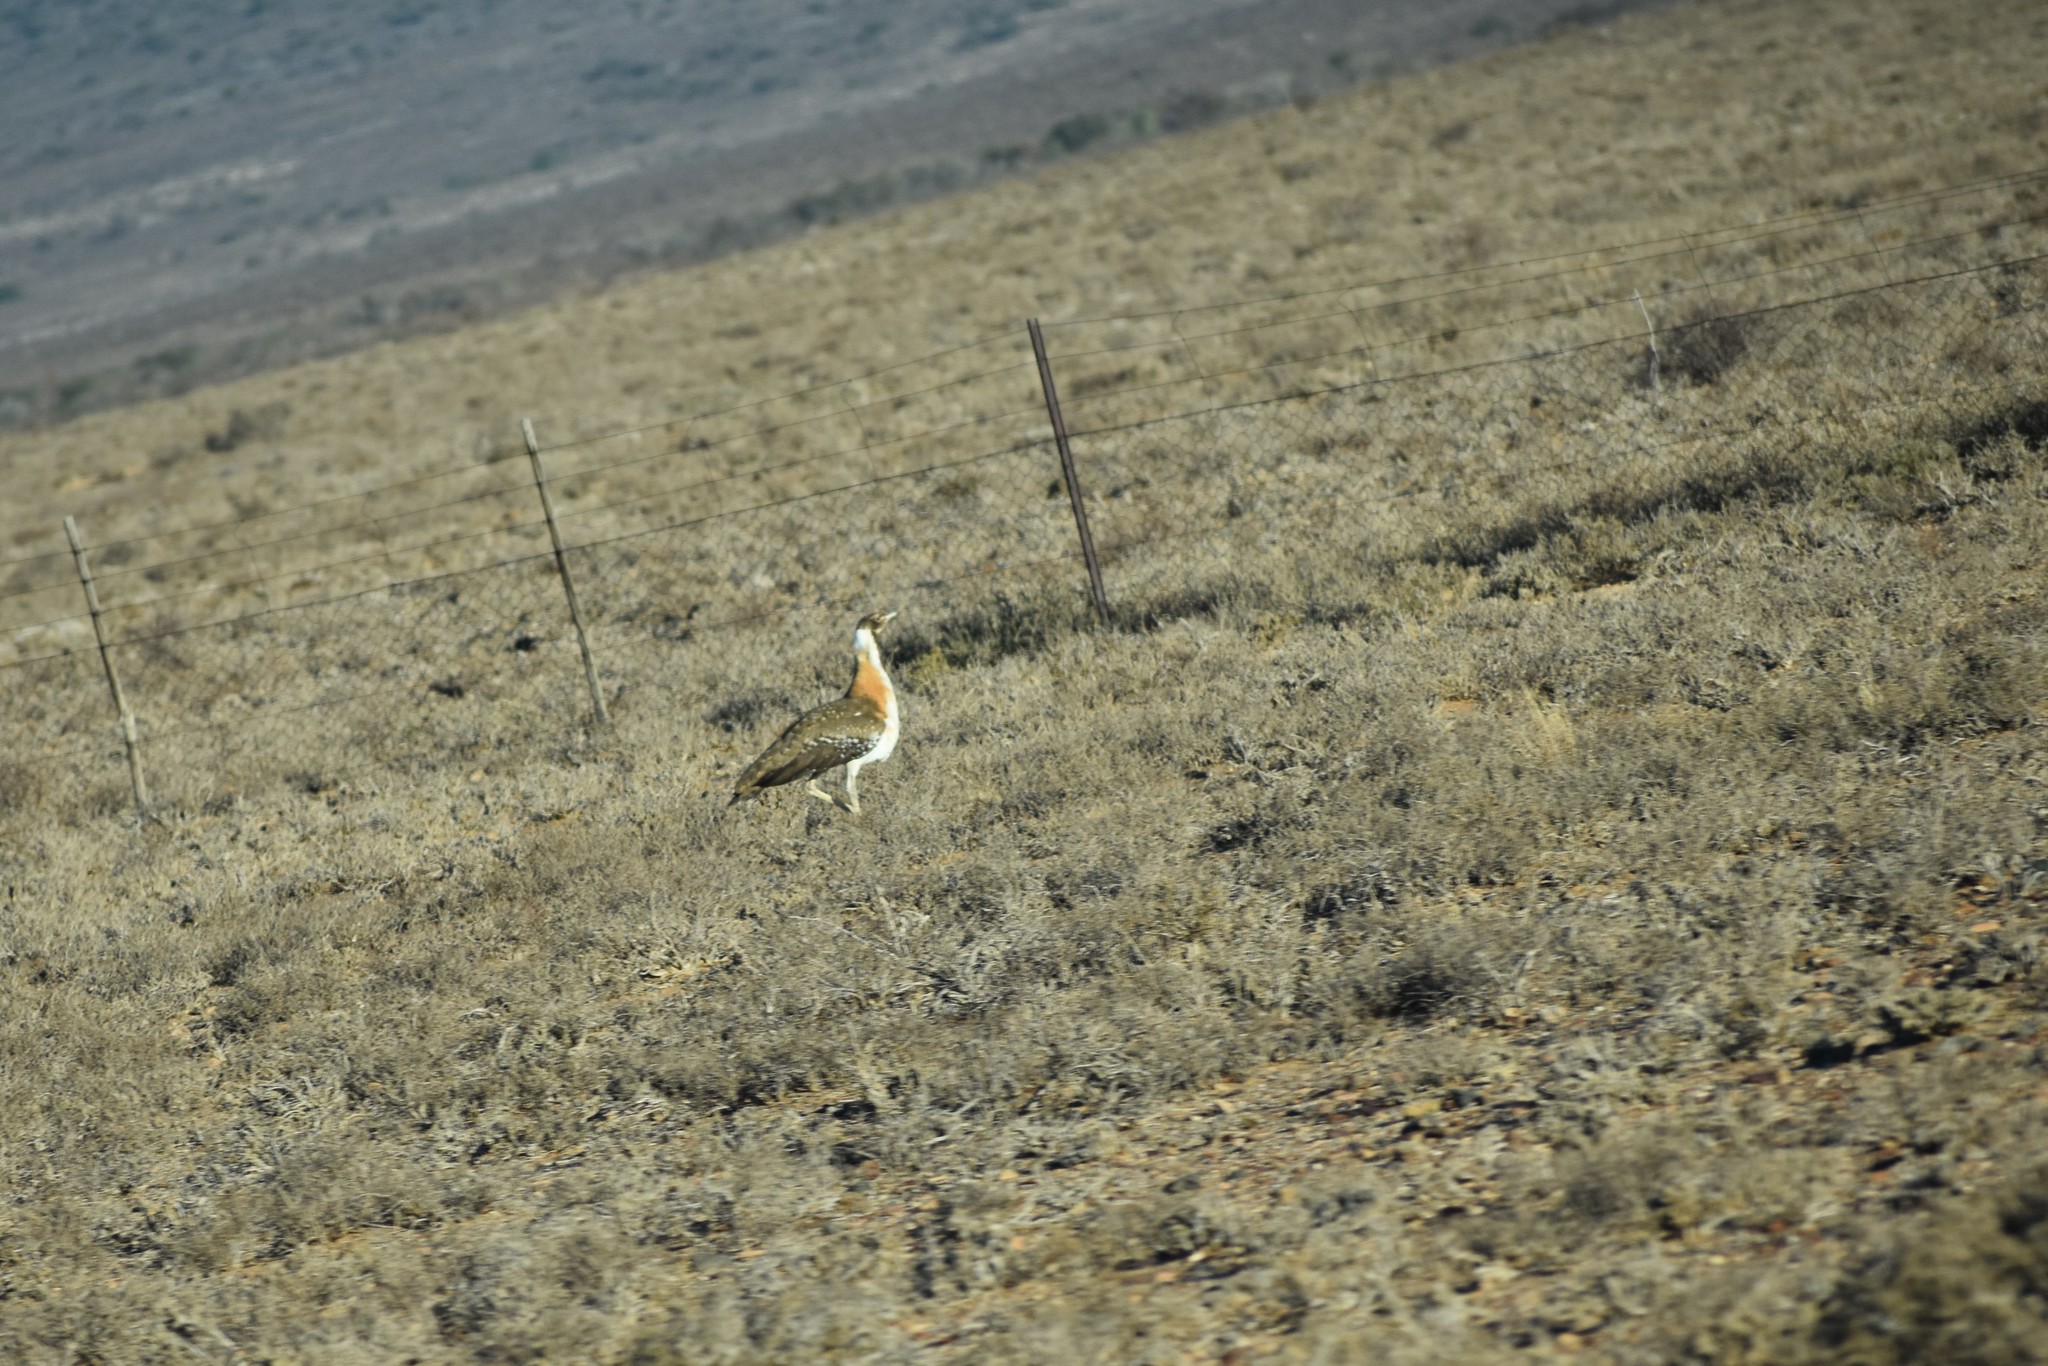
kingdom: Animalia
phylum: Chordata
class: Aves
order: Otidiformes
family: Otididae
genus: Neotis
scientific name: Neotis ludwigii
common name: Ludwig's bustard
